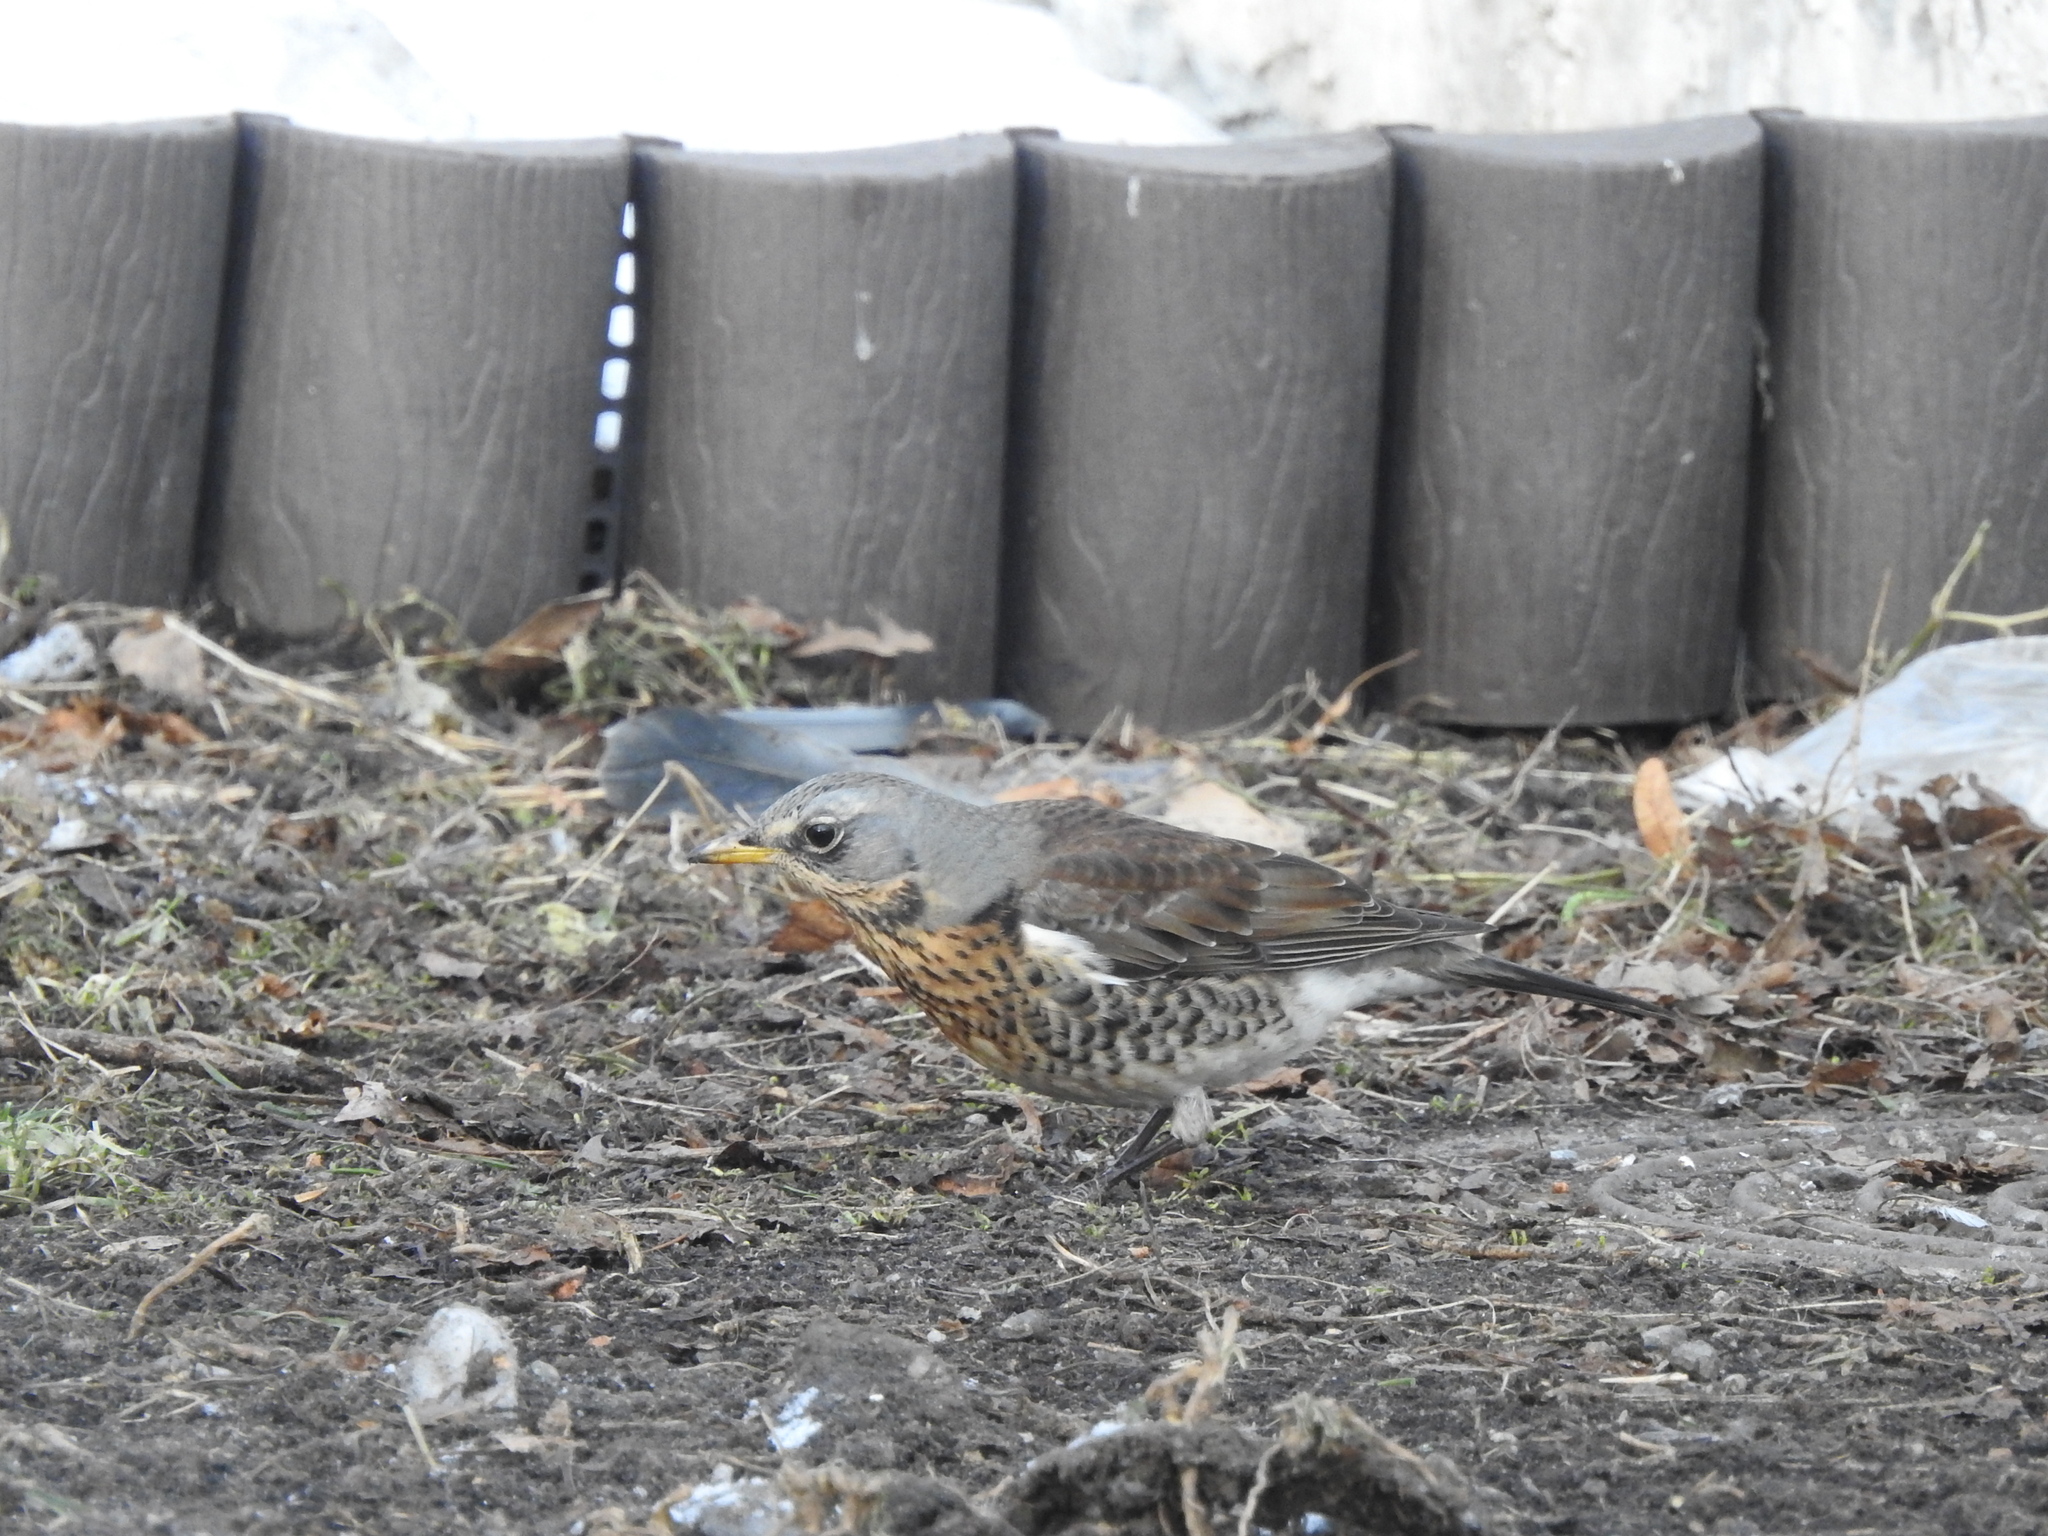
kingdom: Animalia
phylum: Chordata
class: Aves
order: Passeriformes
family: Turdidae
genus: Turdus
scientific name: Turdus pilaris
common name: Fieldfare
